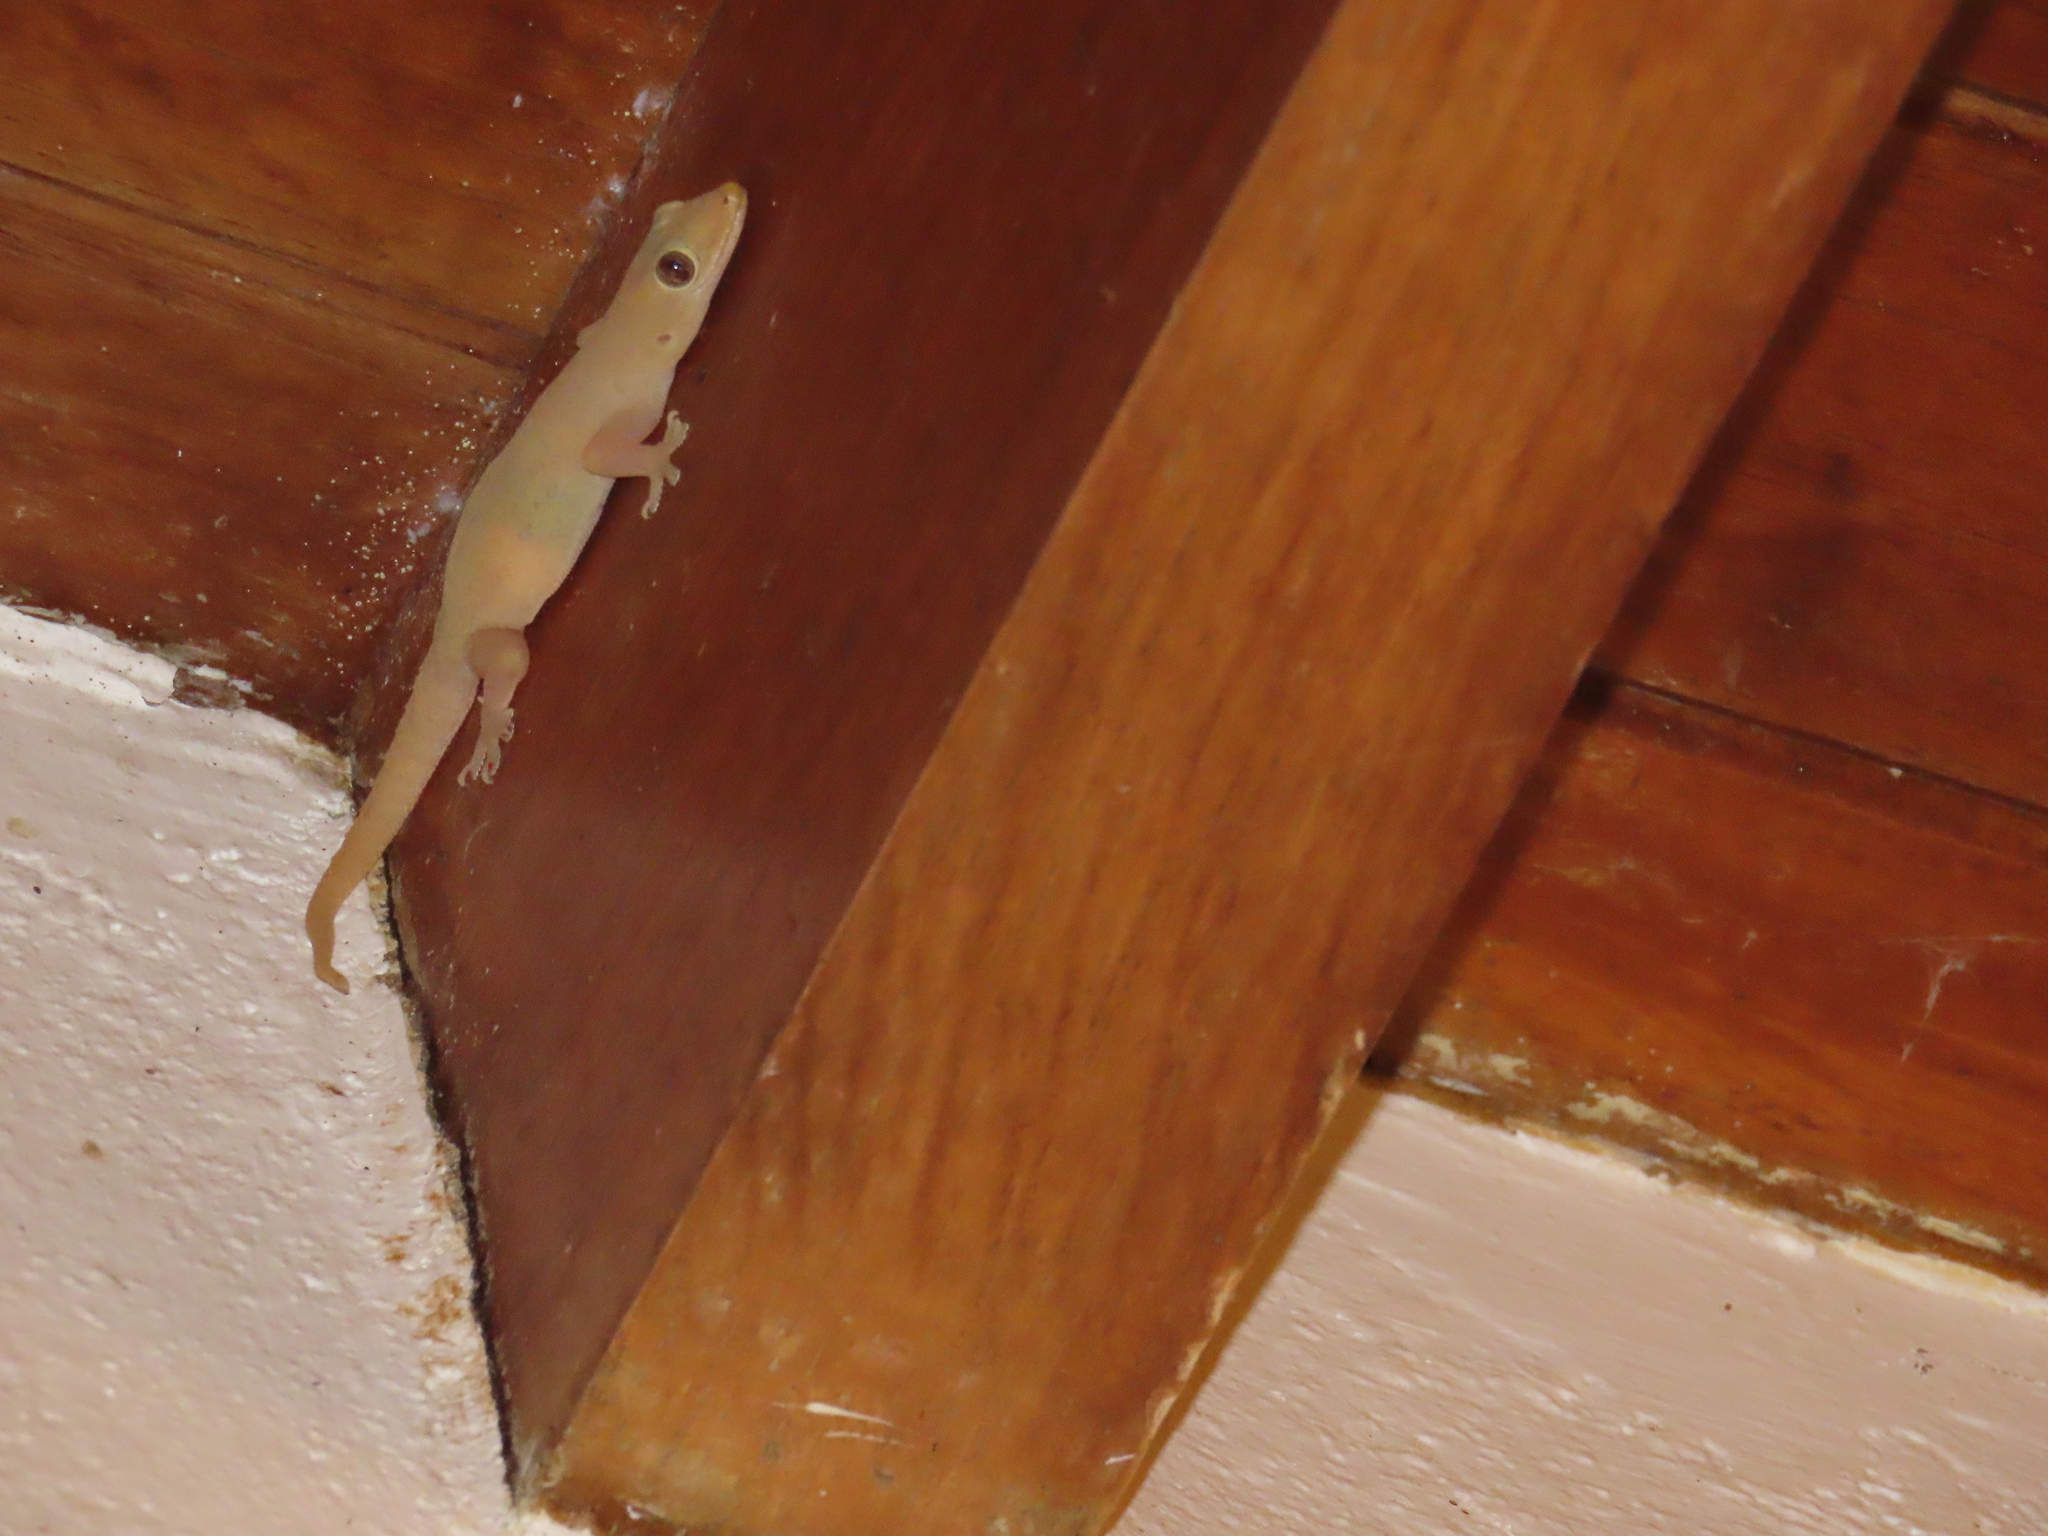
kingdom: Animalia
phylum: Chordata
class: Squamata
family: Gekkonidae
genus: Hemidactylus
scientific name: Hemidactylus frenatus
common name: Common house gecko
